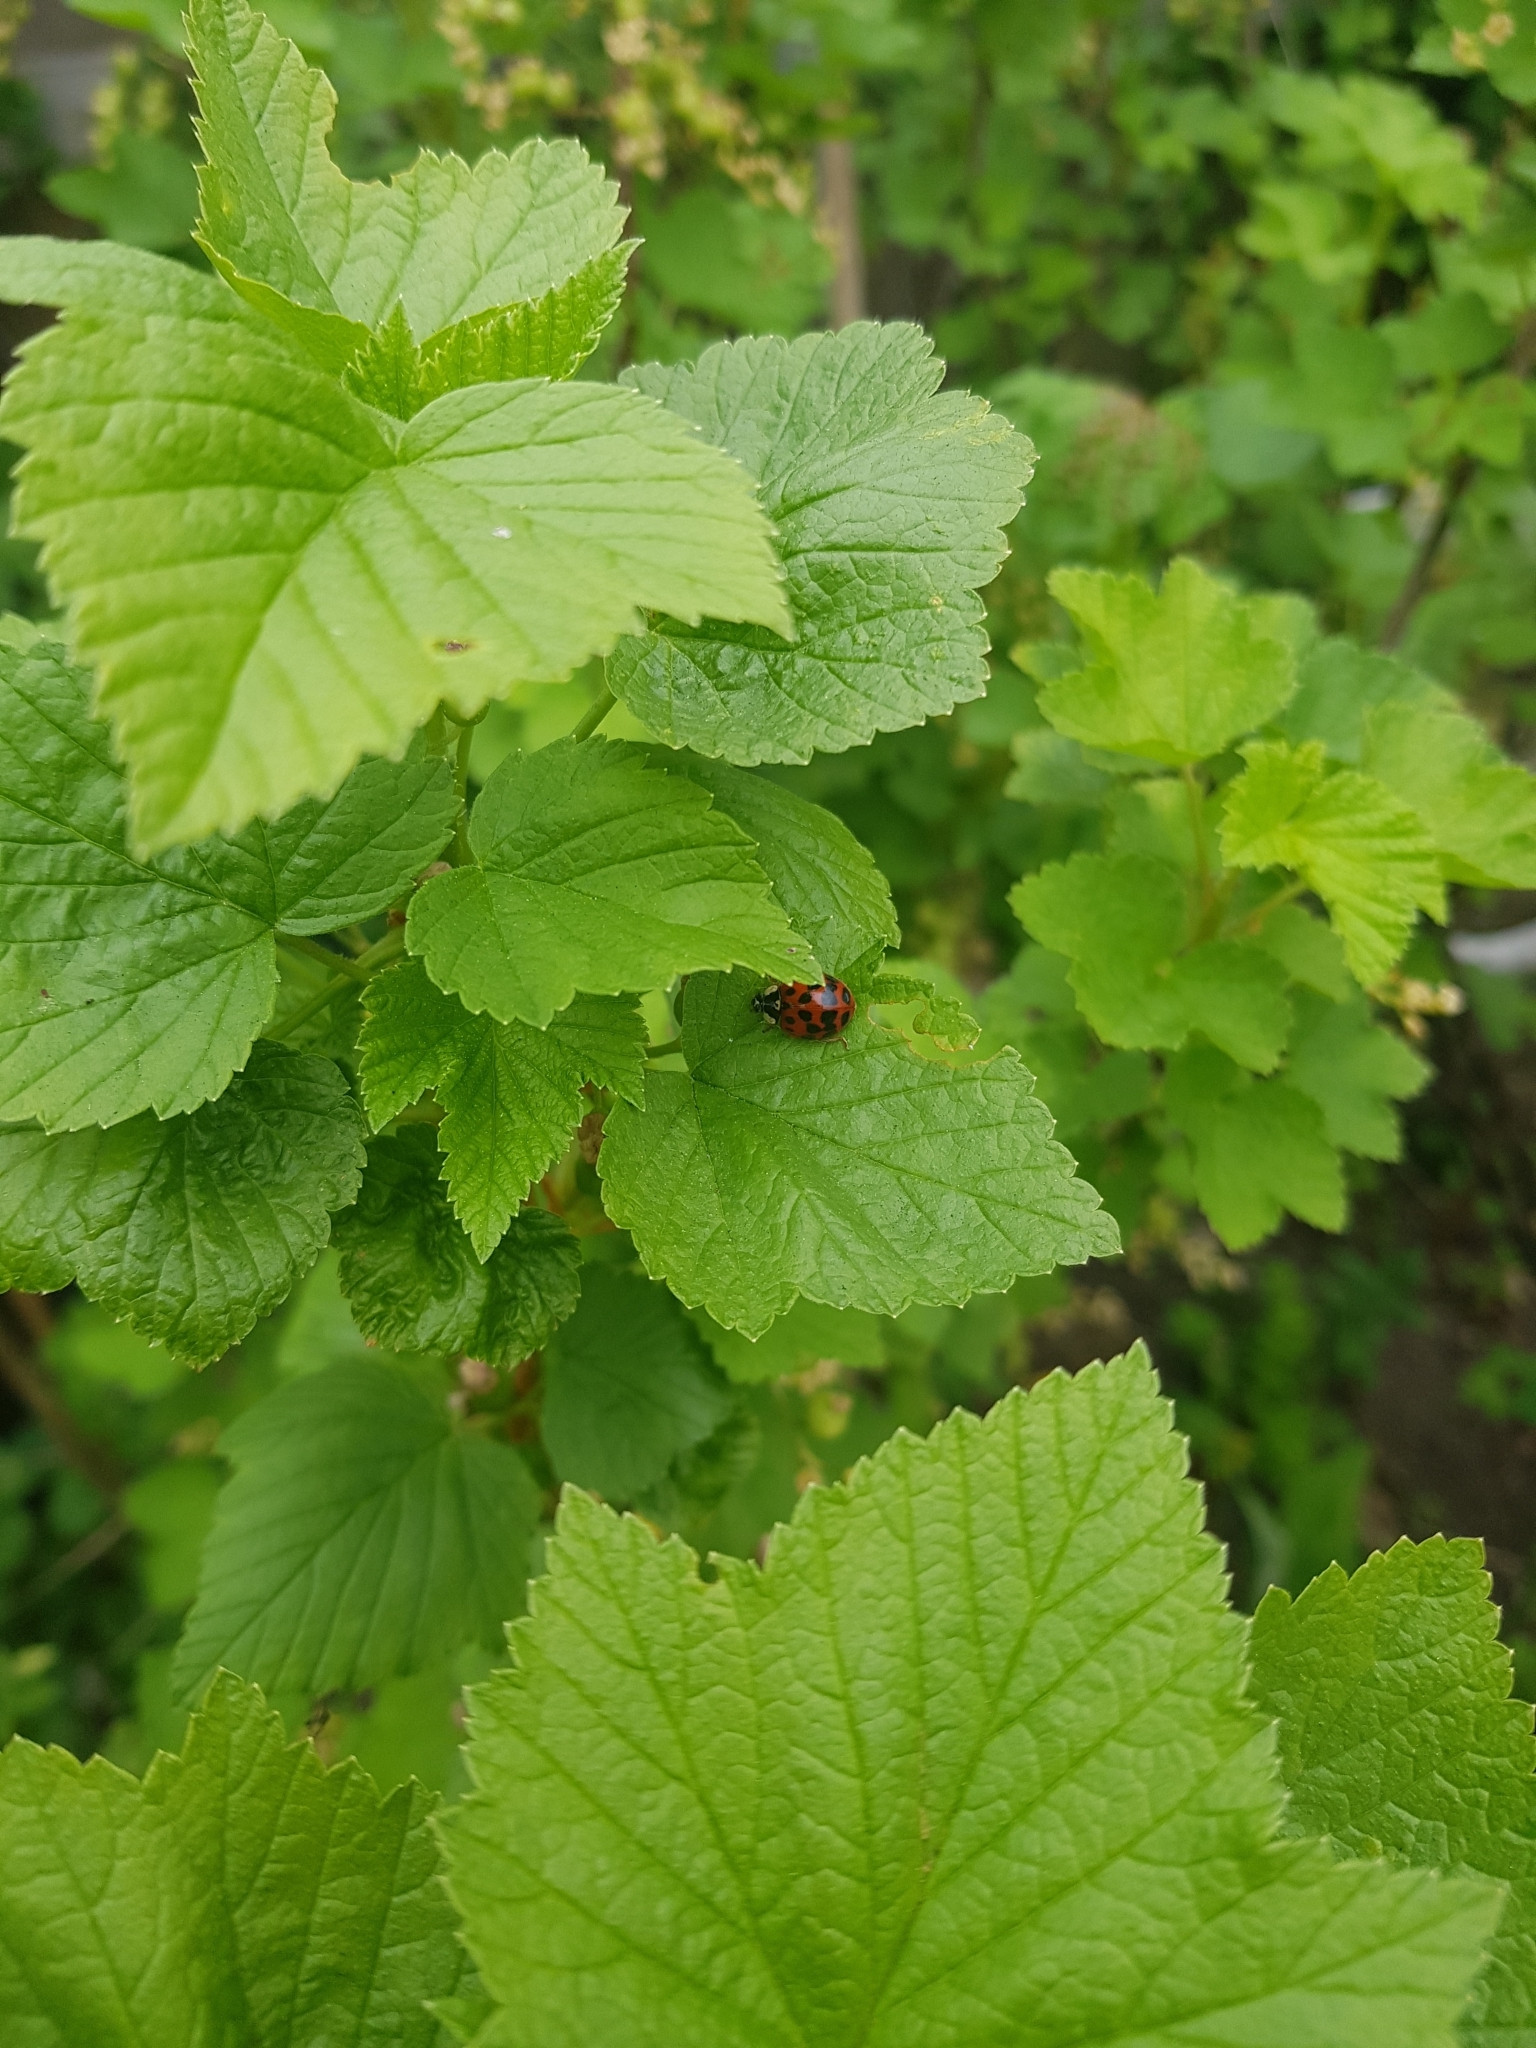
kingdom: Animalia
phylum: Arthropoda
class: Insecta
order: Coleoptera
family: Coccinellidae
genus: Harmonia
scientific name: Harmonia axyridis
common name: Harlequin ladybird
